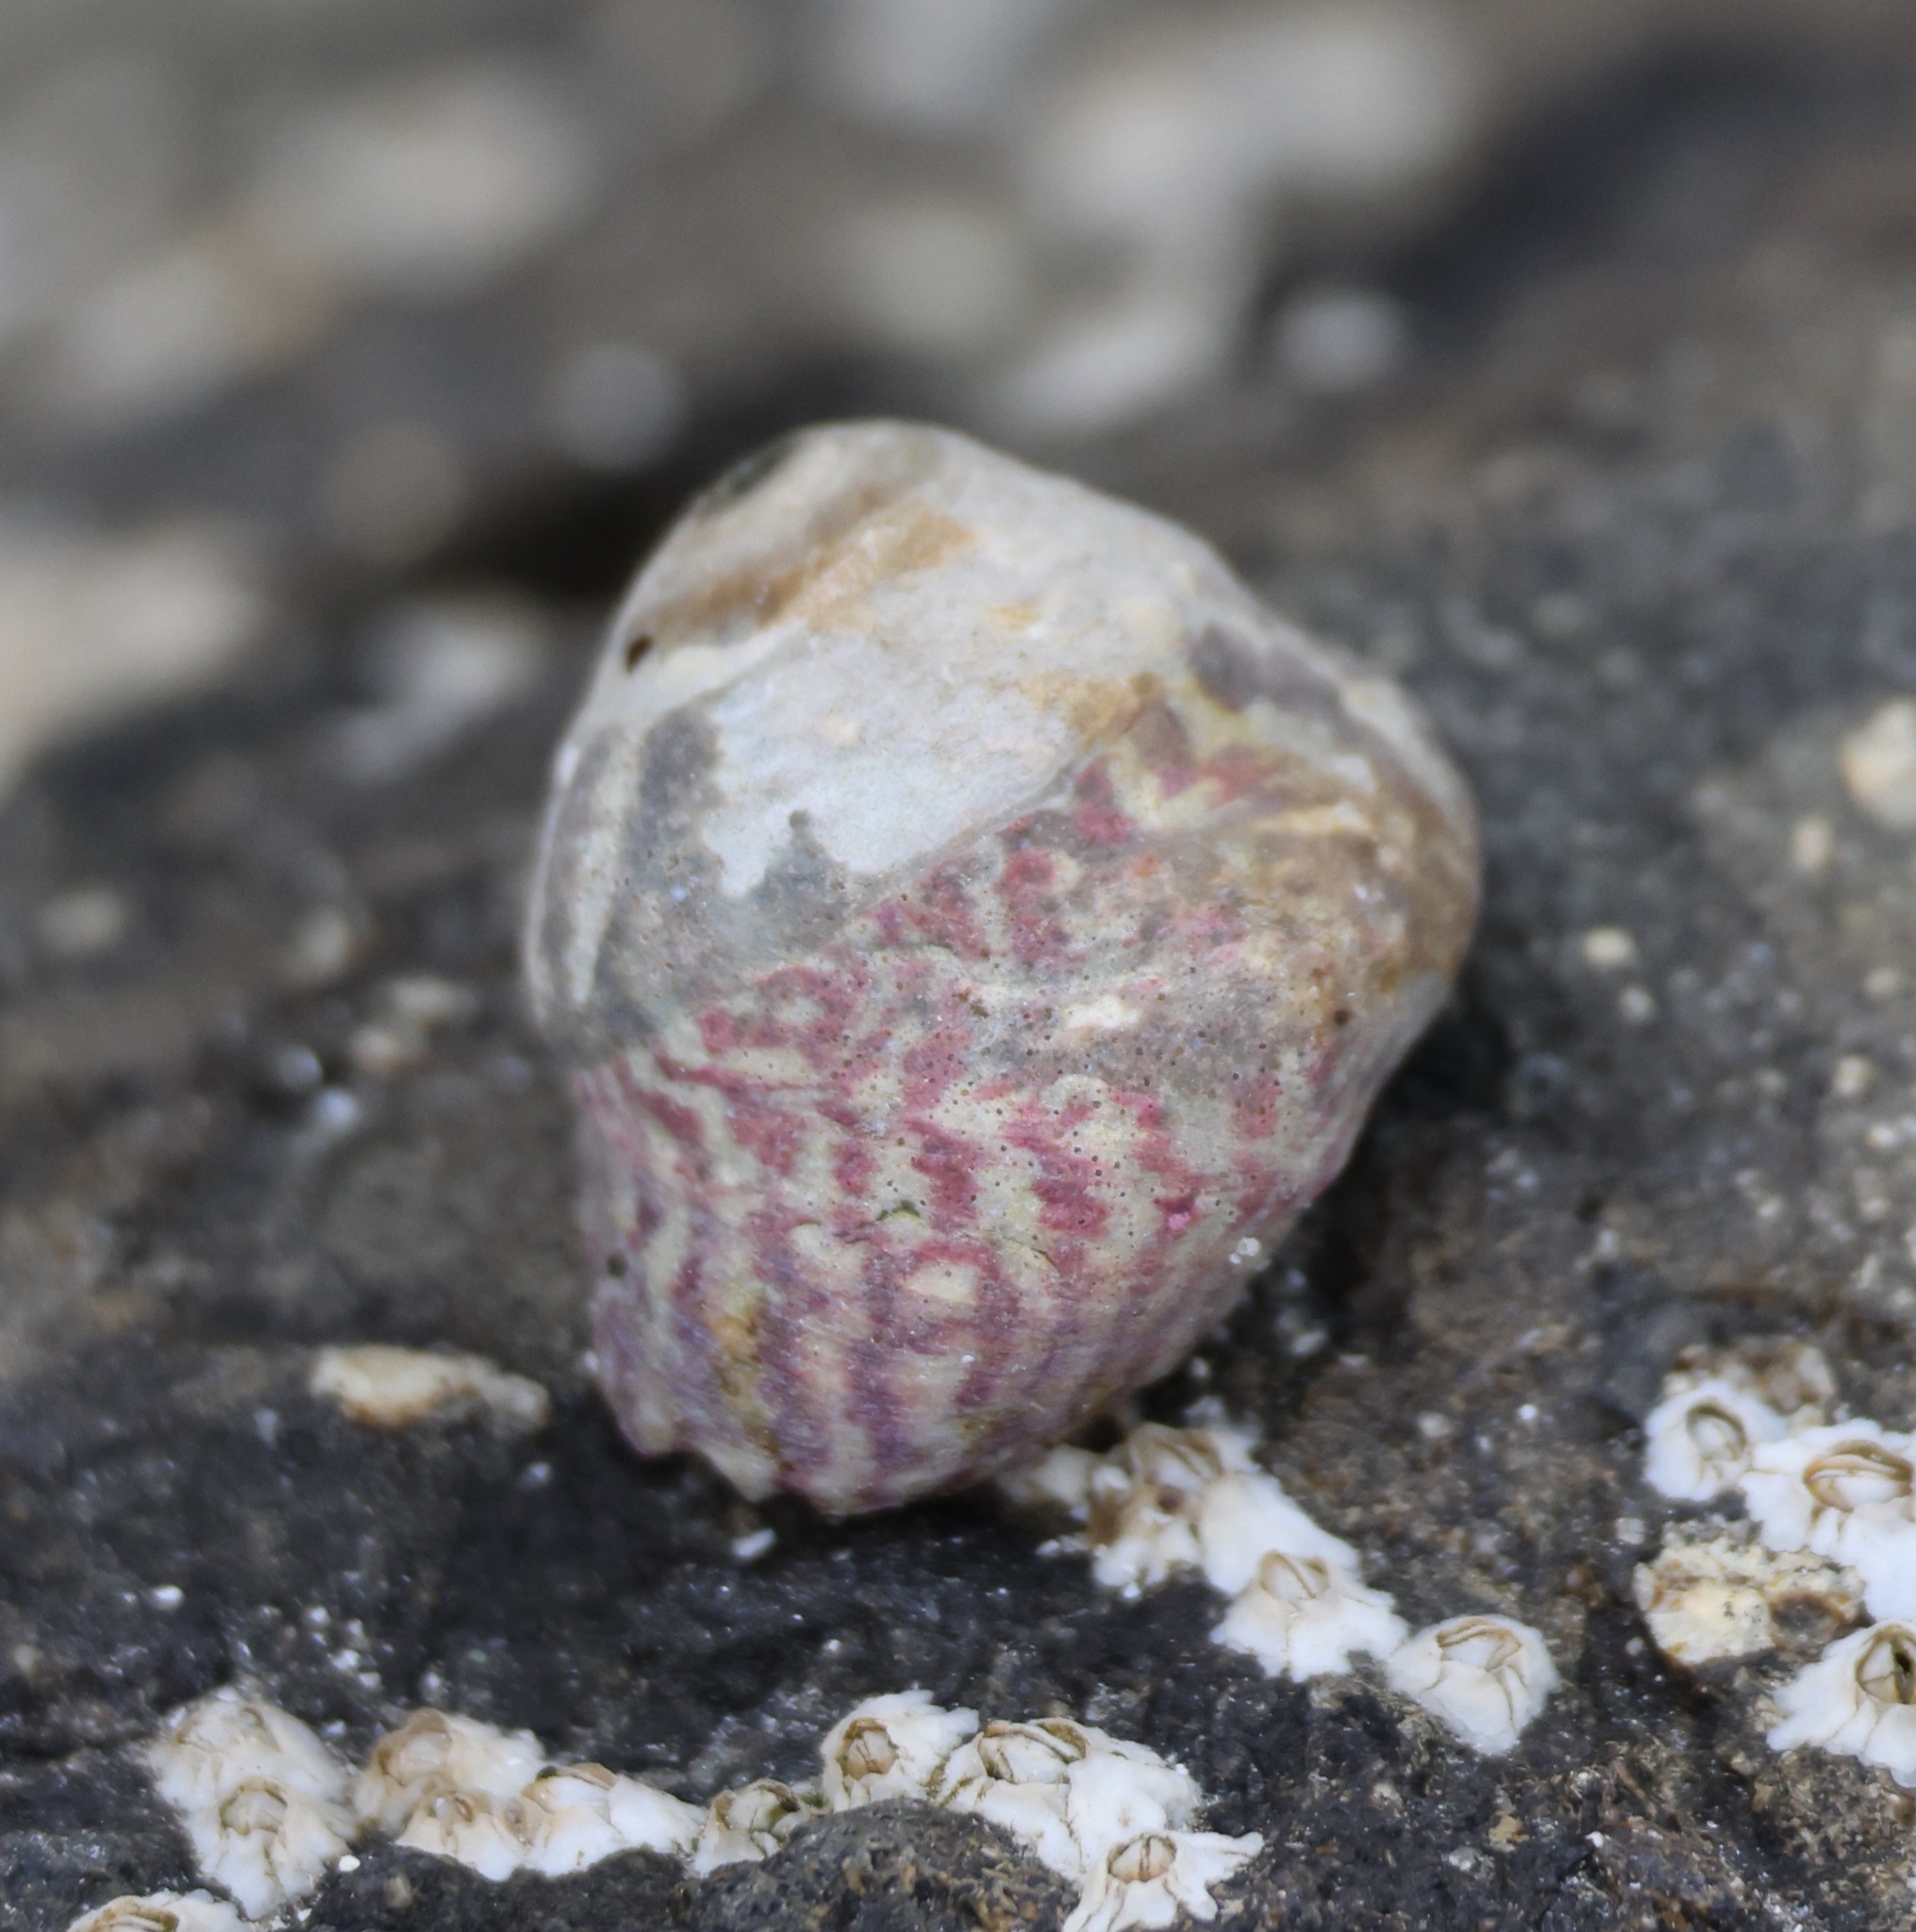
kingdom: Animalia
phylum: Mollusca
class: Gastropoda
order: Trochida
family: Trochidae
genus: Steromphala
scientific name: Steromphala umbilicalis
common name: Flat top shell
